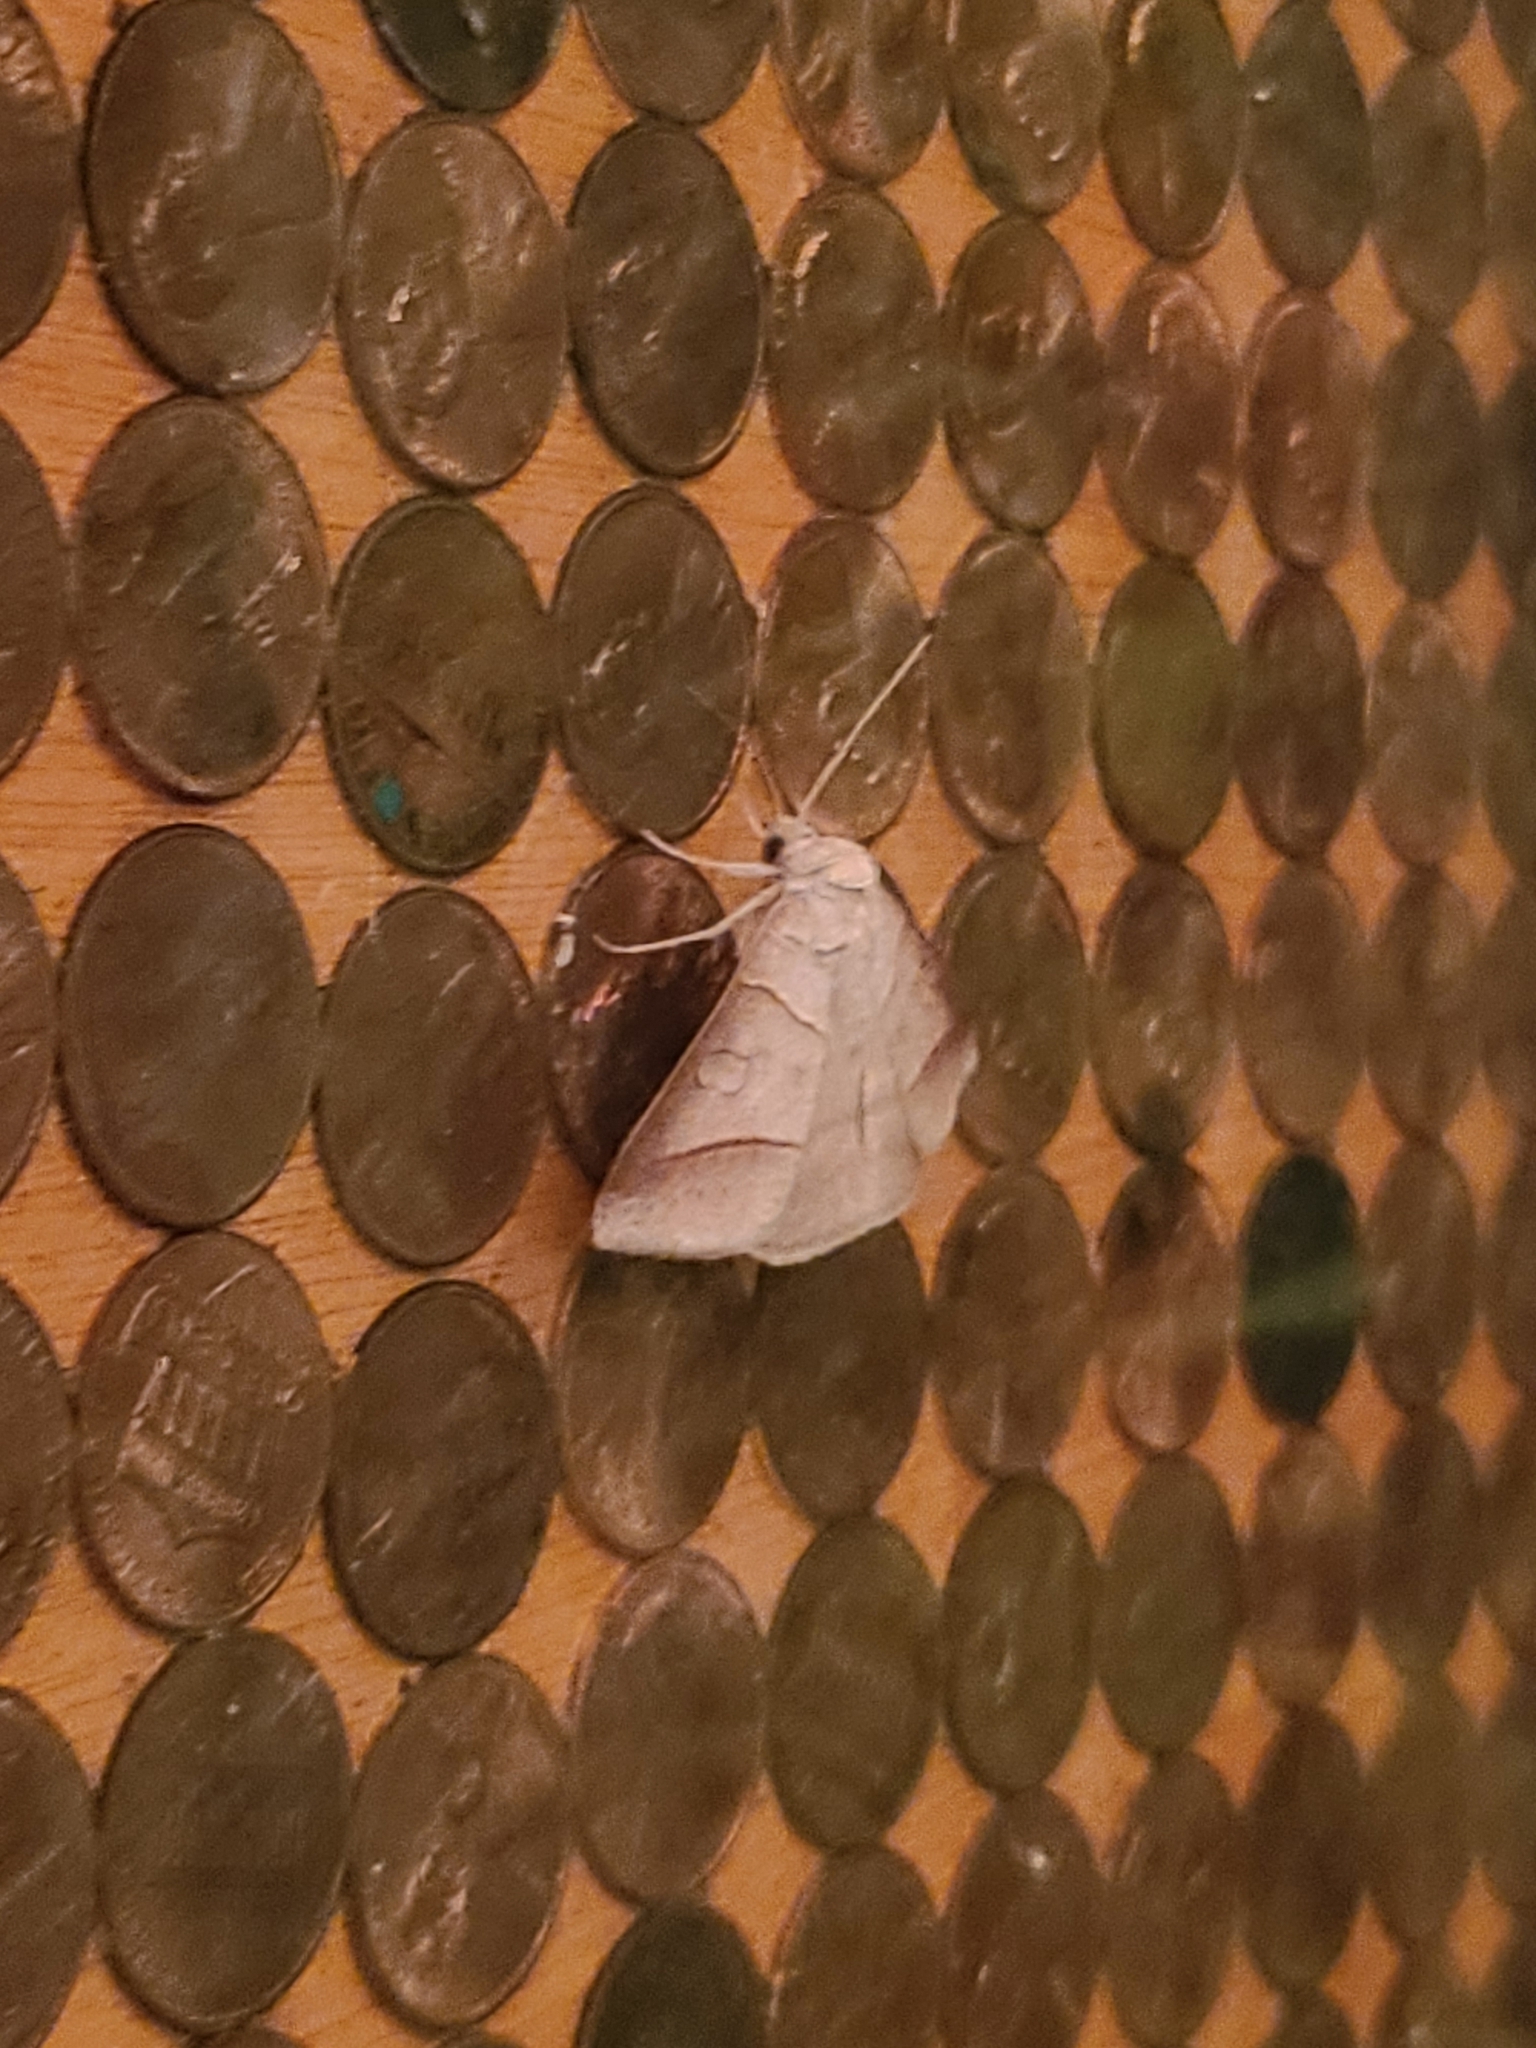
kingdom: Animalia
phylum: Arthropoda
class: Insecta
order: Lepidoptera
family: Erebidae
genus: Mocis
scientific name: Mocis texana
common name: Texas mocis moth
